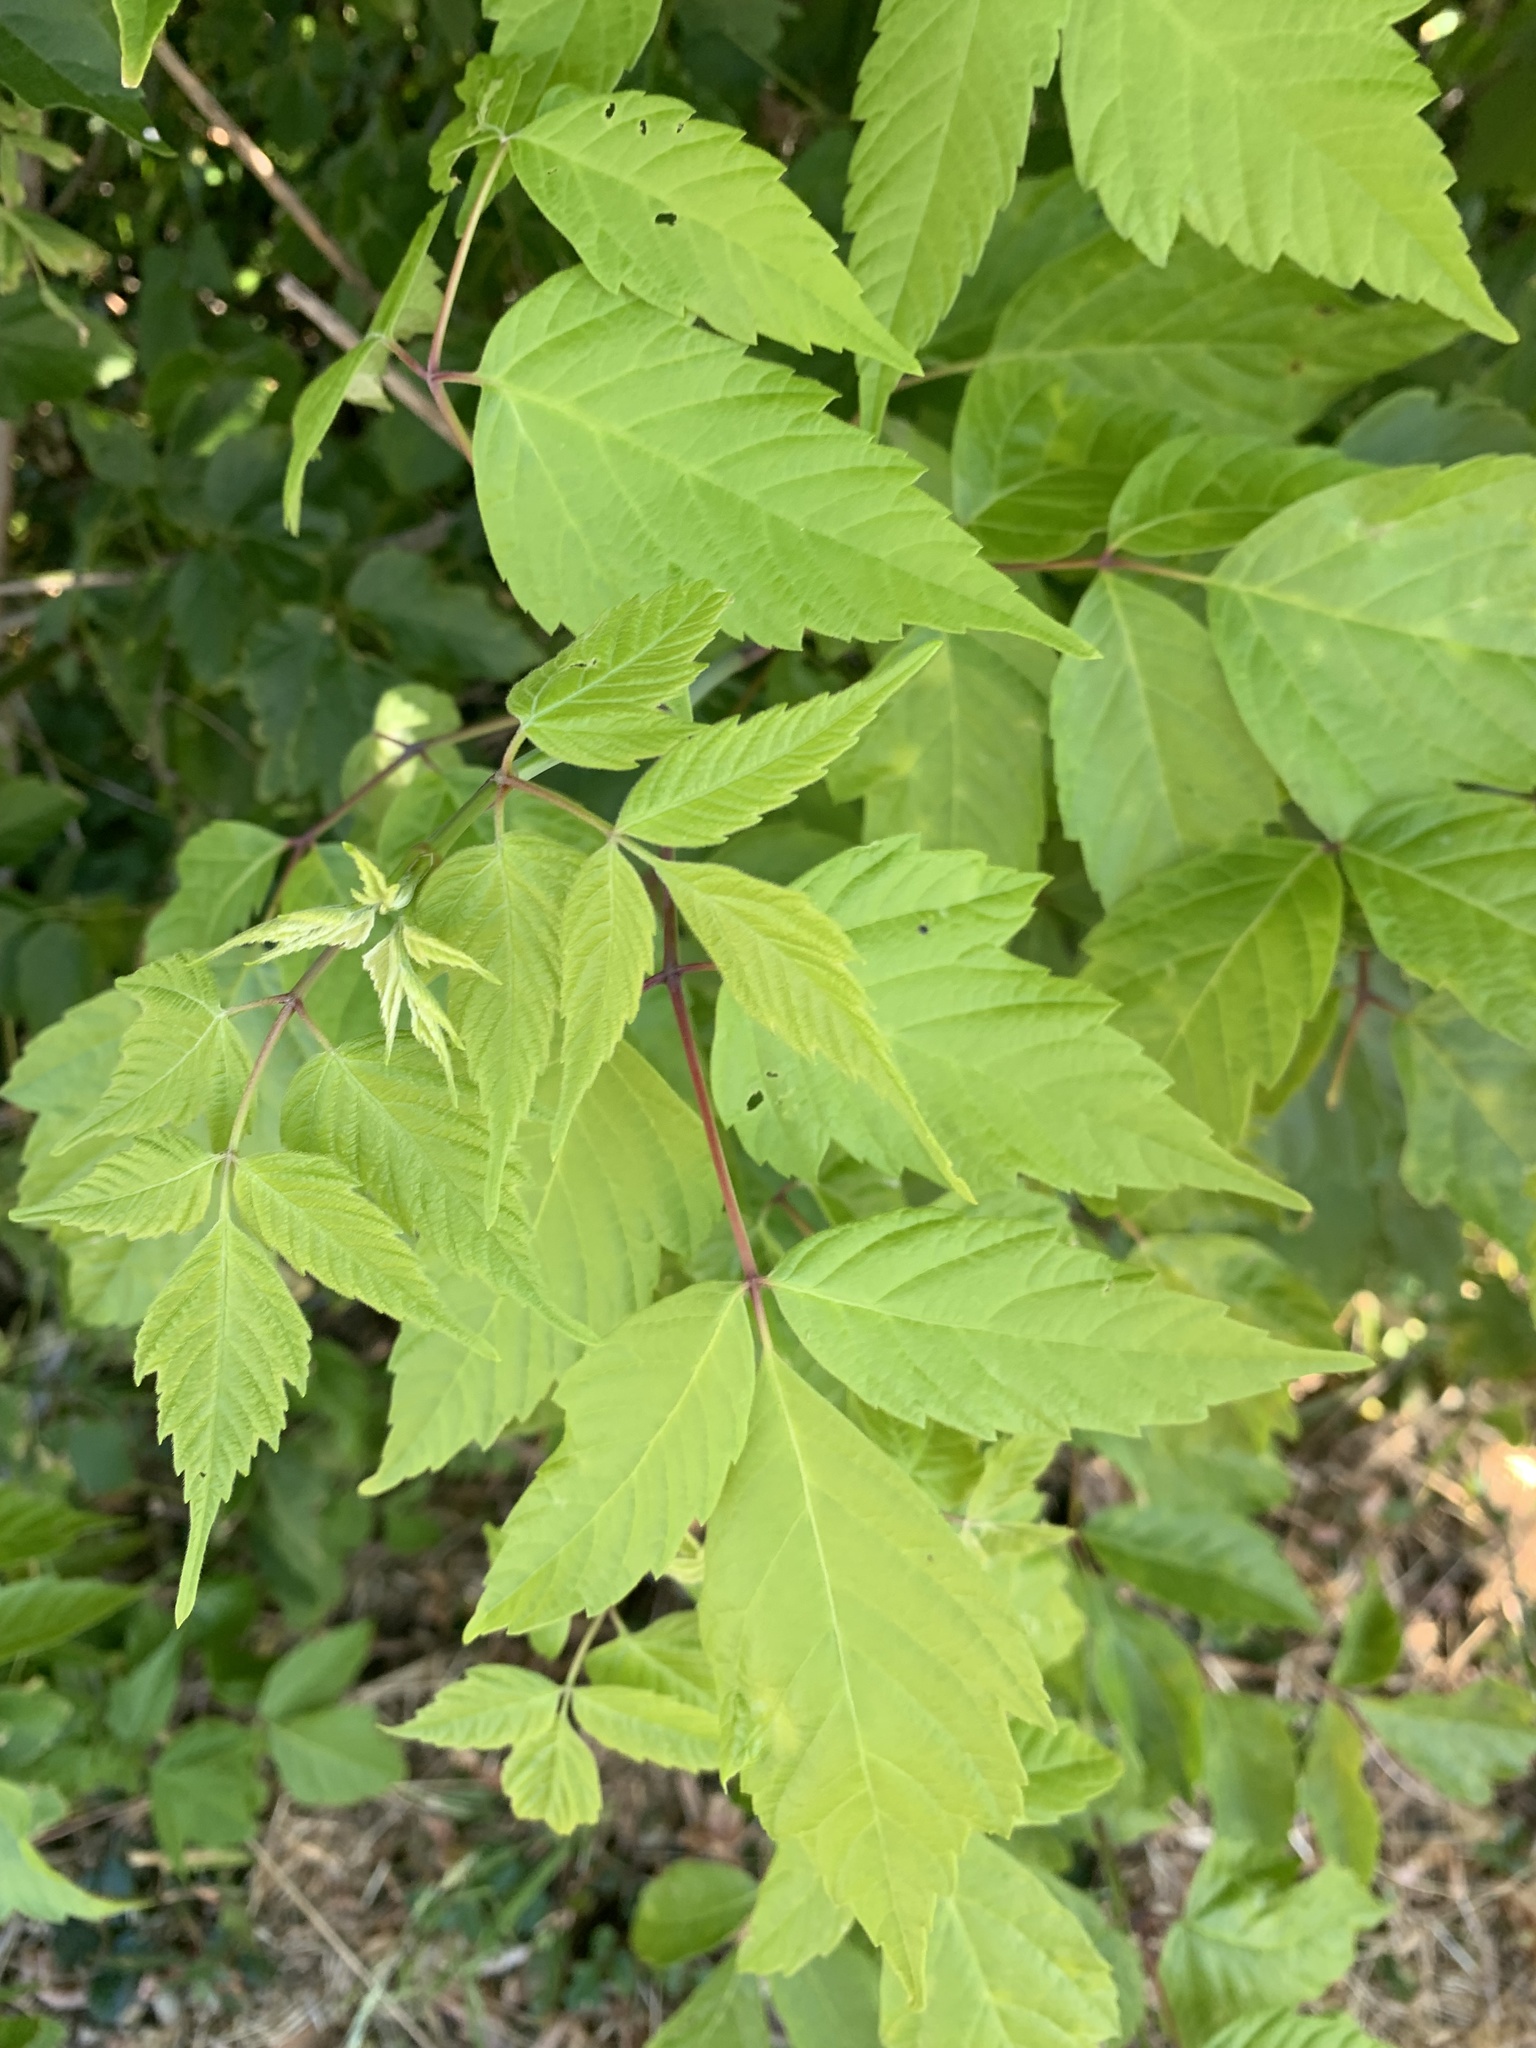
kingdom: Plantae
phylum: Tracheophyta
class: Magnoliopsida
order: Sapindales
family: Sapindaceae
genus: Acer
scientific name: Acer negundo
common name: Ashleaf maple
